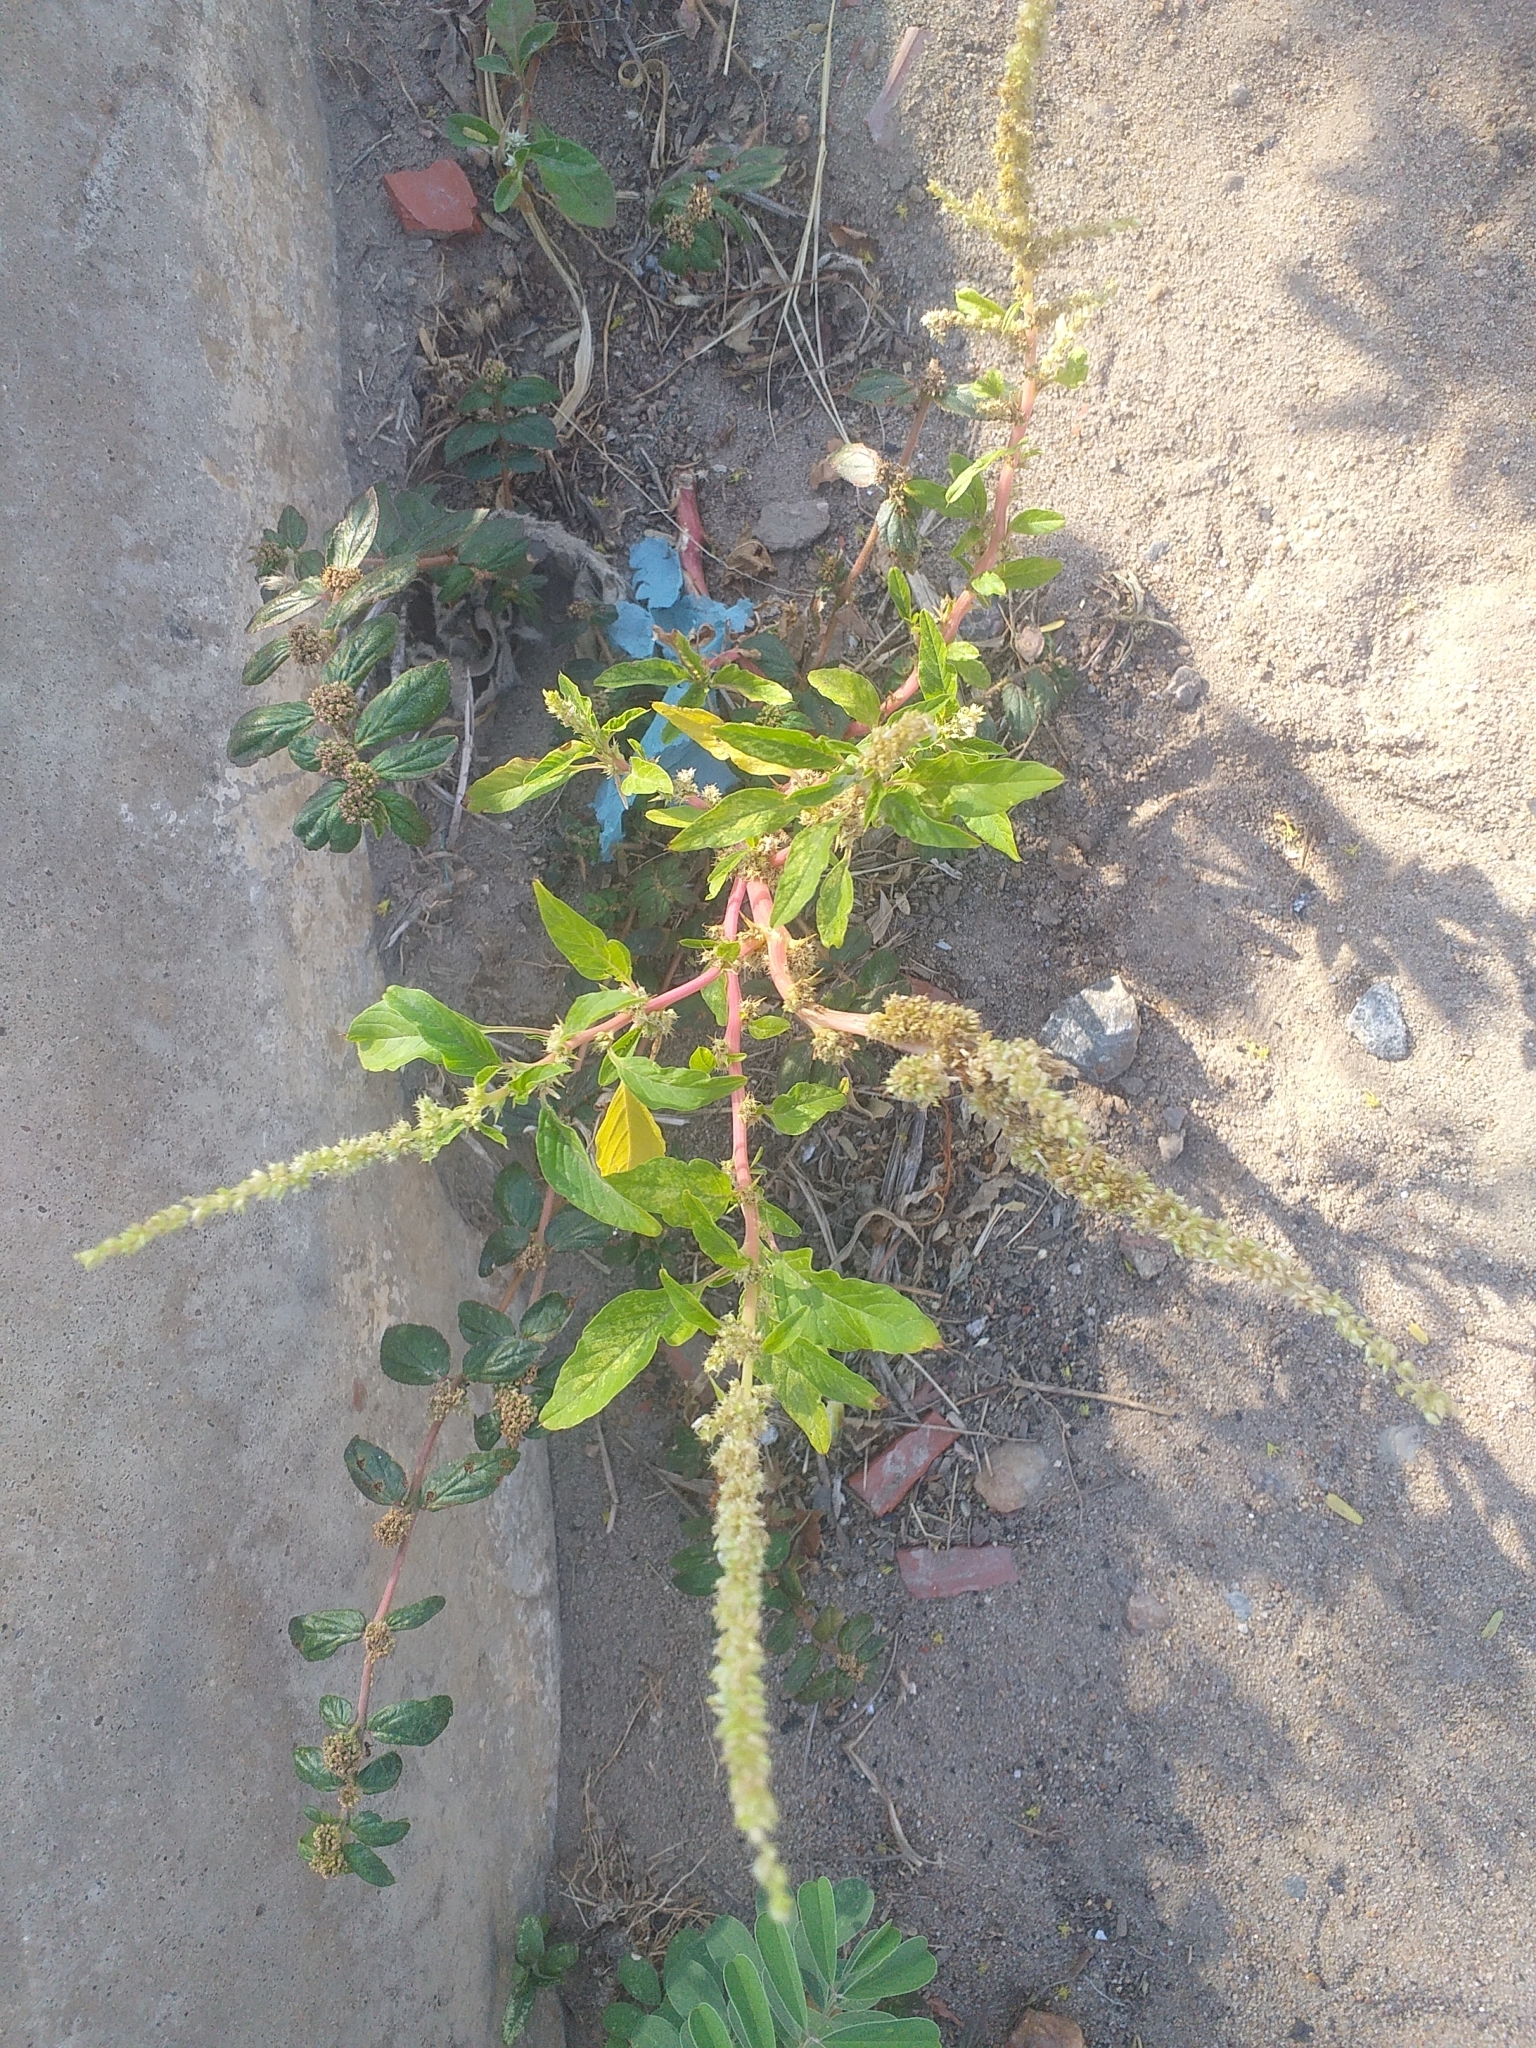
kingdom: Plantae
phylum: Tracheophyta
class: Magnoliopsida
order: Caryophyllales
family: Amaranthaceae
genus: Amaranthus
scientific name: Amaranthus spinosus
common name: Spiny amaranth
